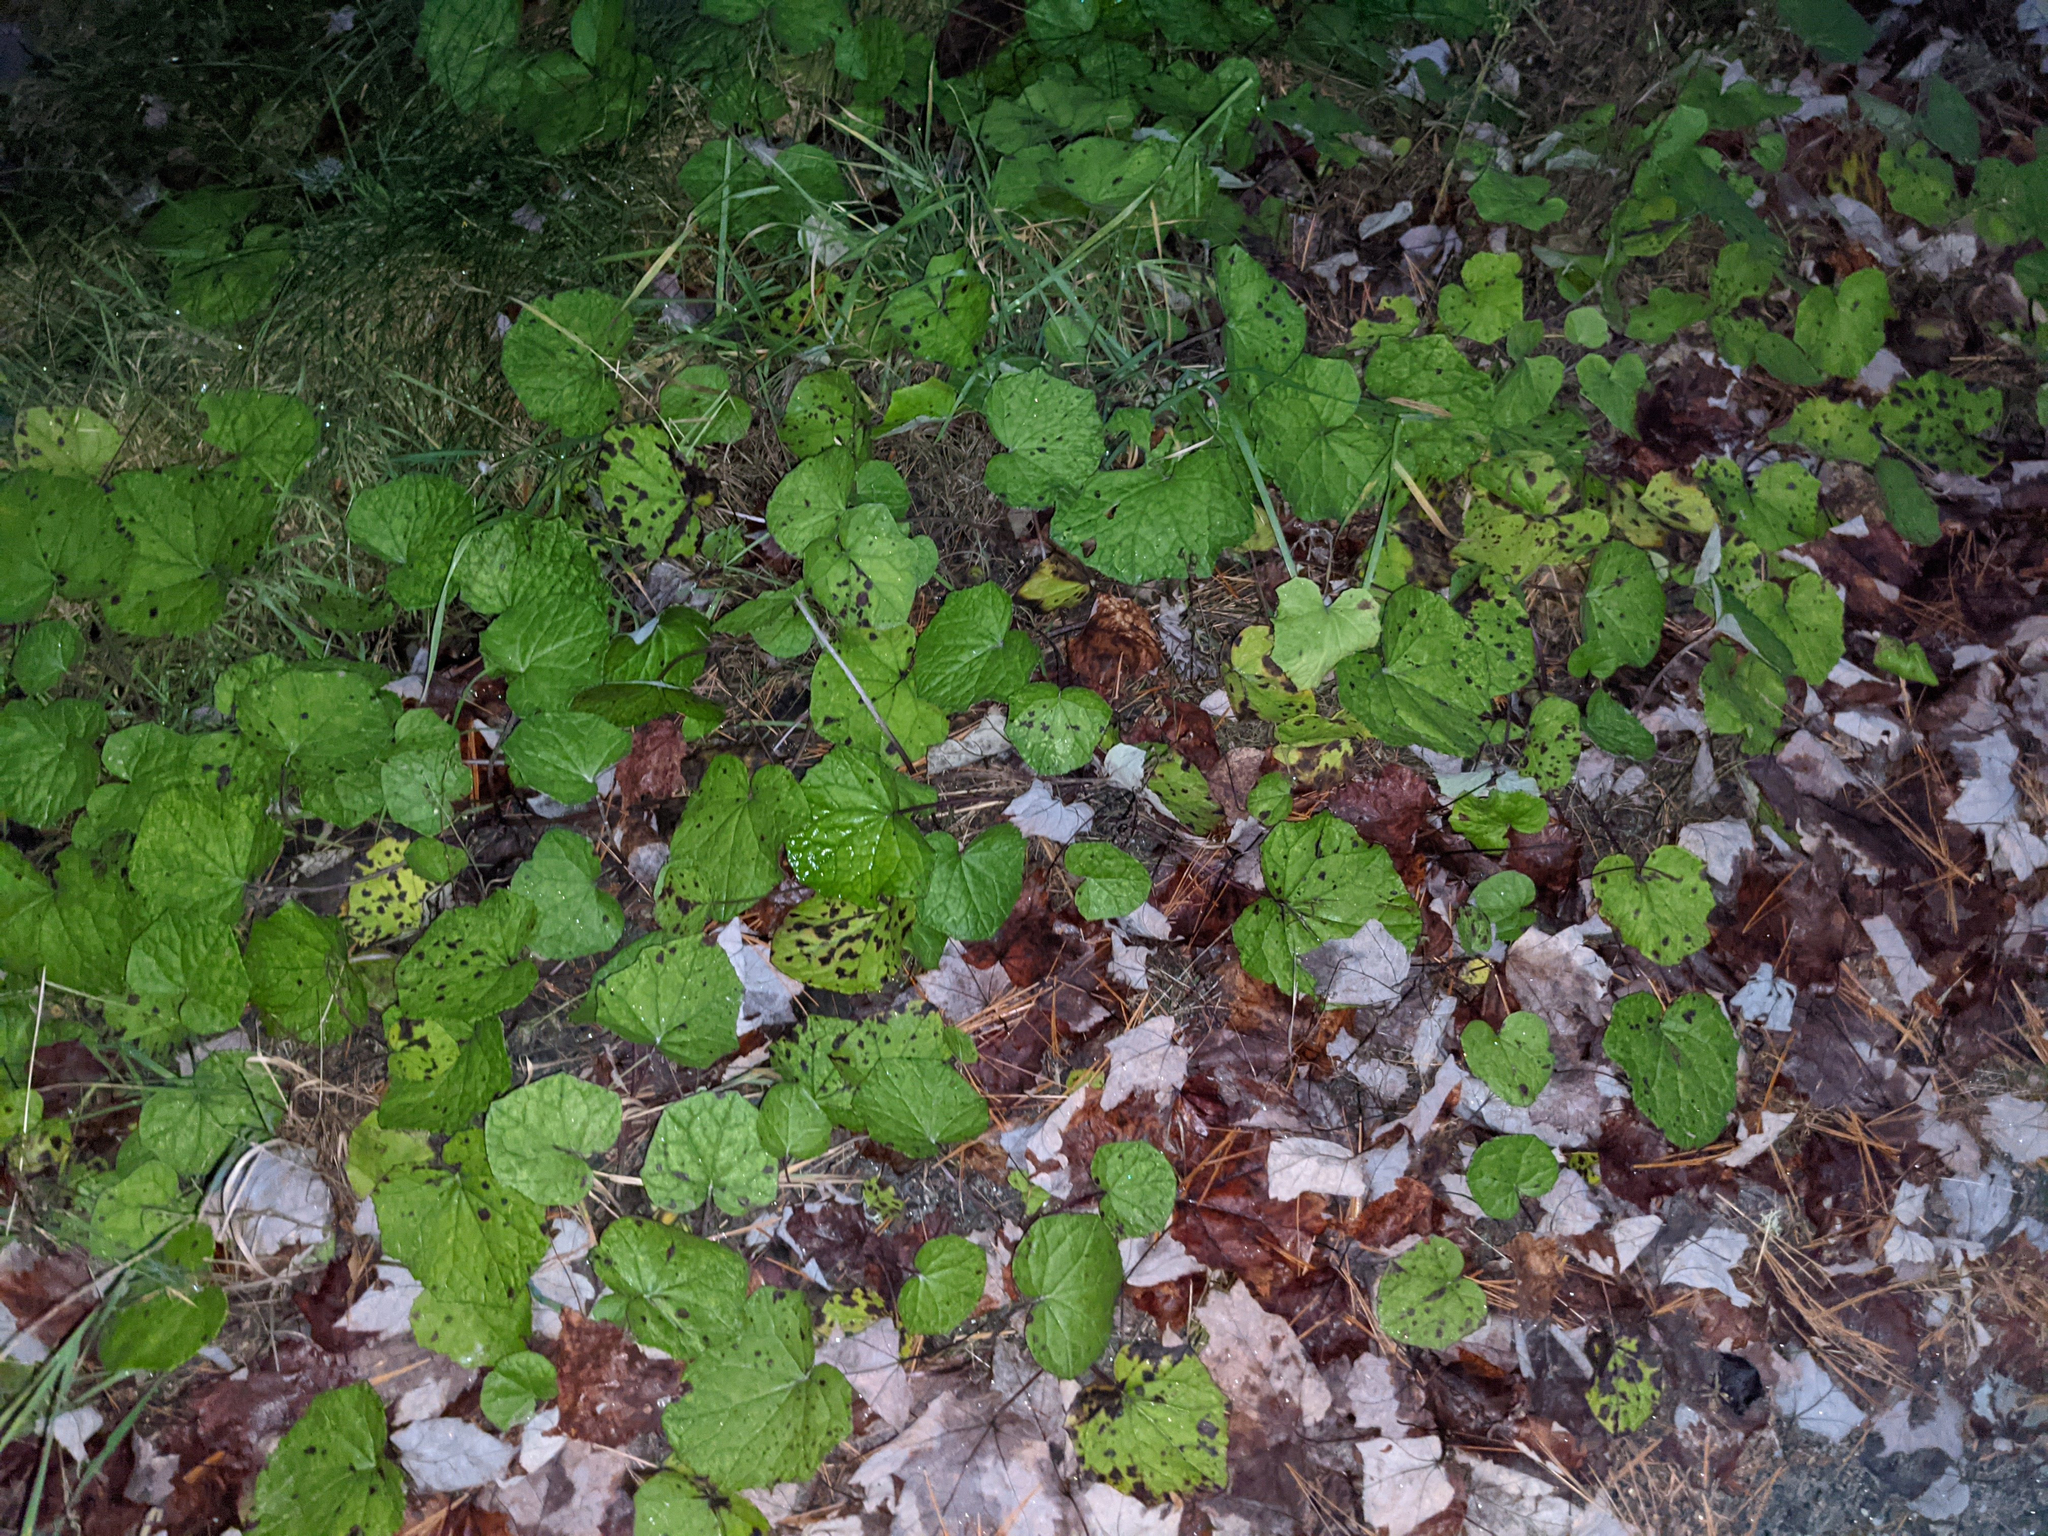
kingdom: Plantae
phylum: Tracheophyta
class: Magnoliopsida
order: Asterales
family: Asteraceae
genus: Tussilago
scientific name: Tussilago farfara
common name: Coltsfoot
